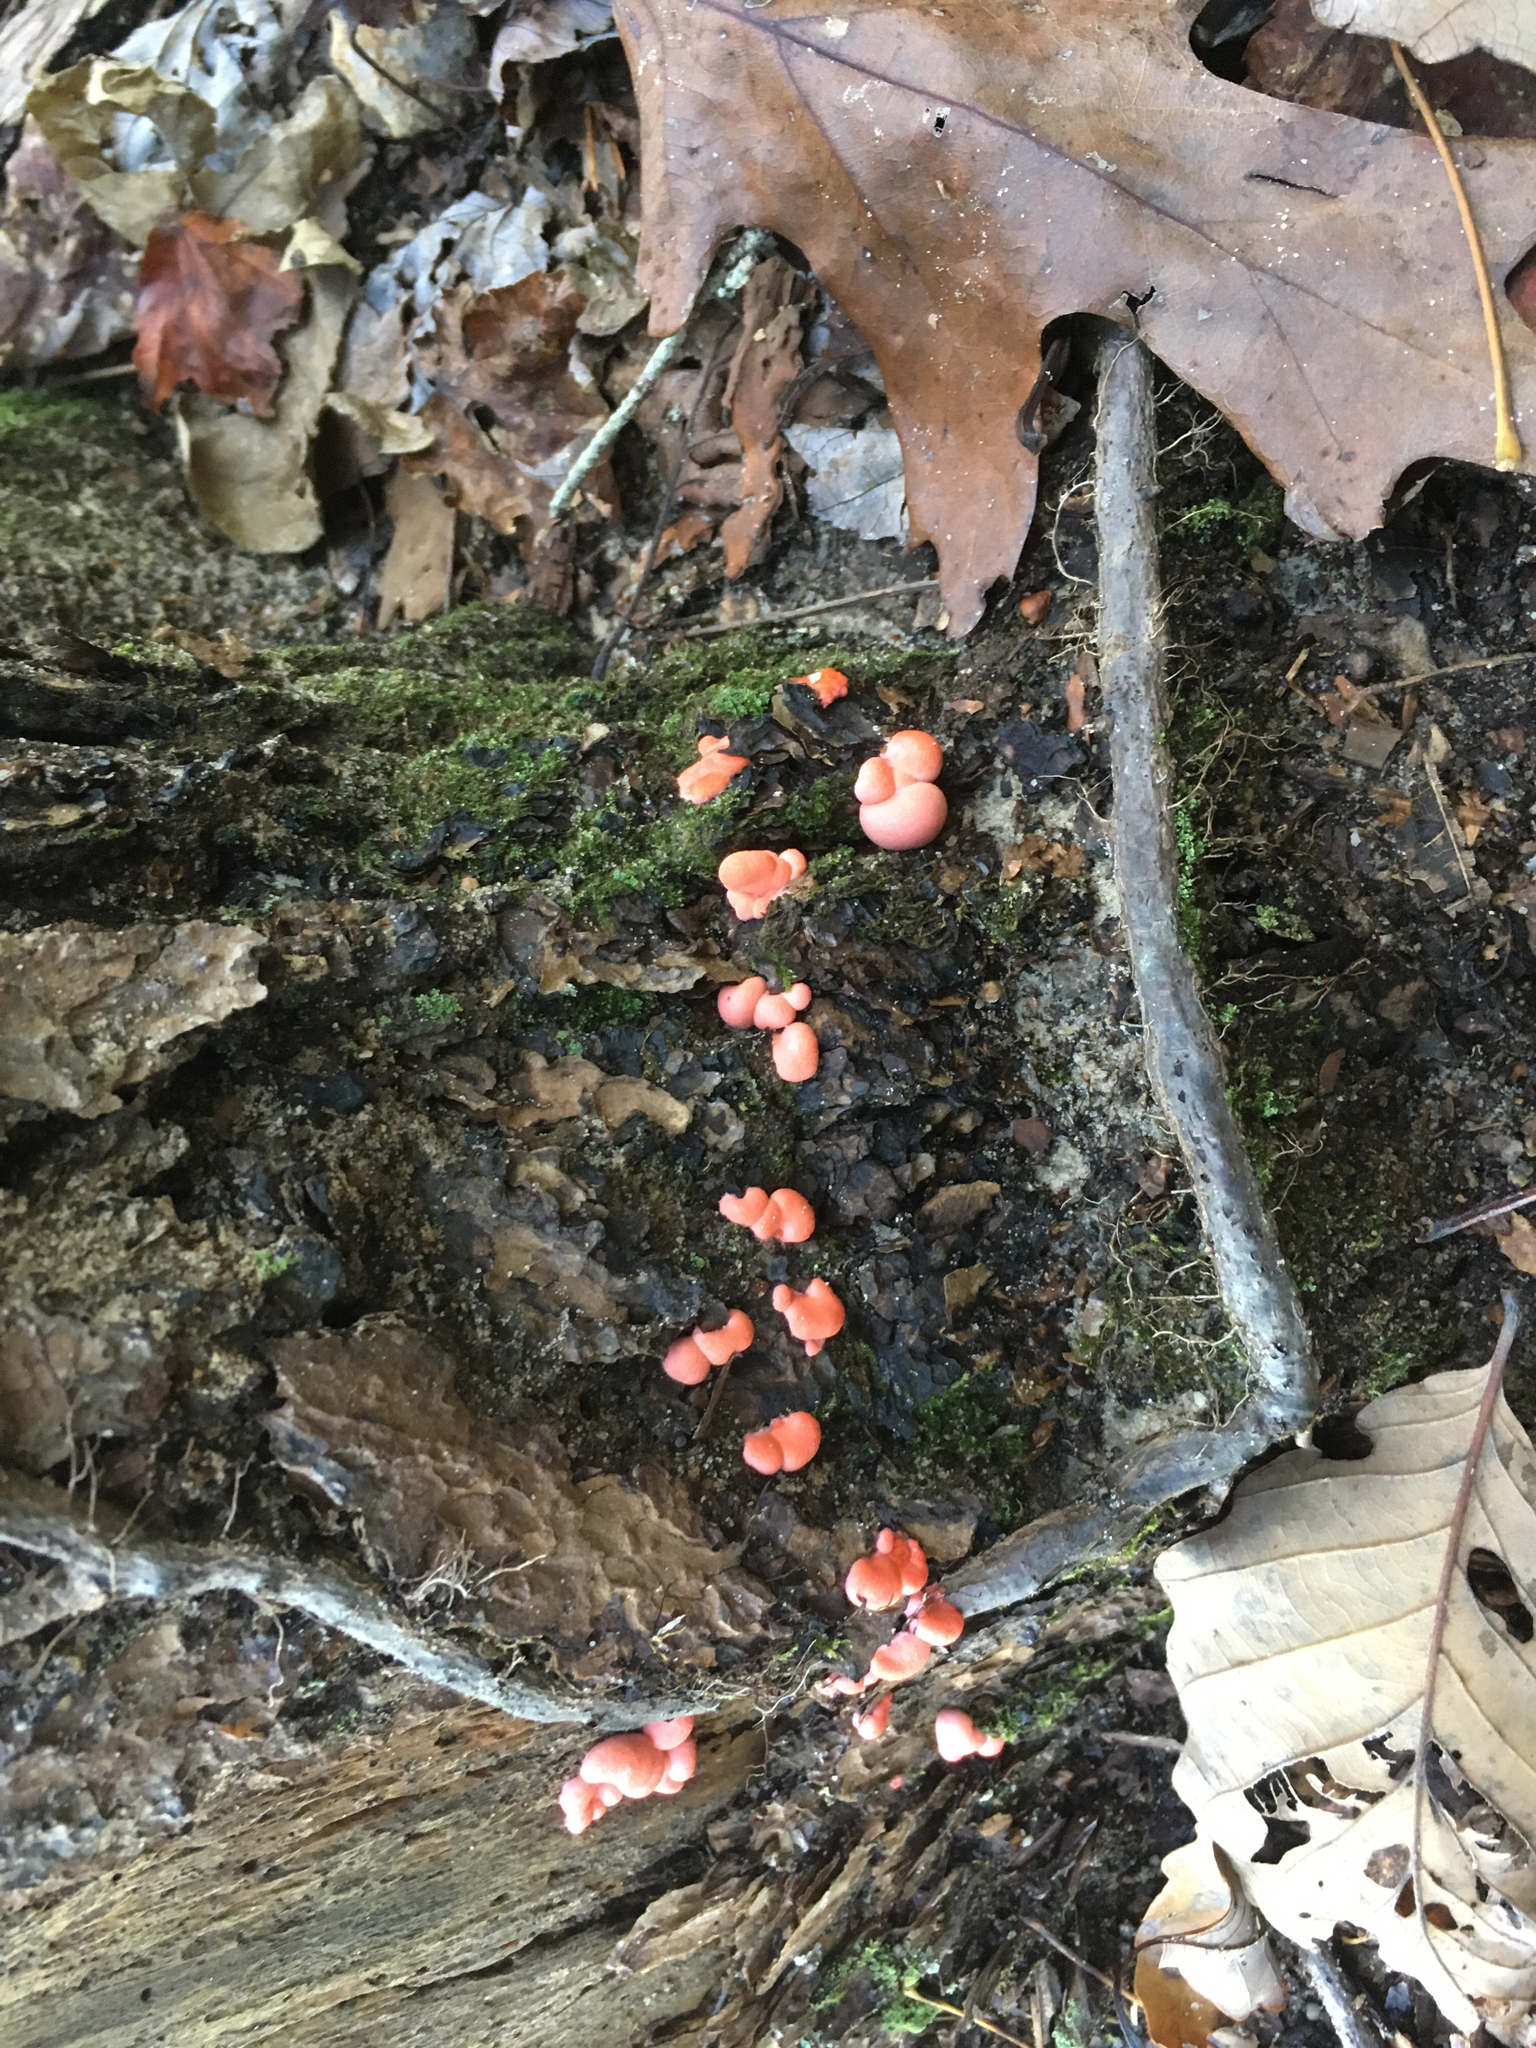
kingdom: Protozoa
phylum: Mycetozoa
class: Myxomycetes
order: Cribrariales
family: Tubiferaceae
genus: Lycogala
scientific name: Lycogala epidendrum
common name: Wolf's milk
